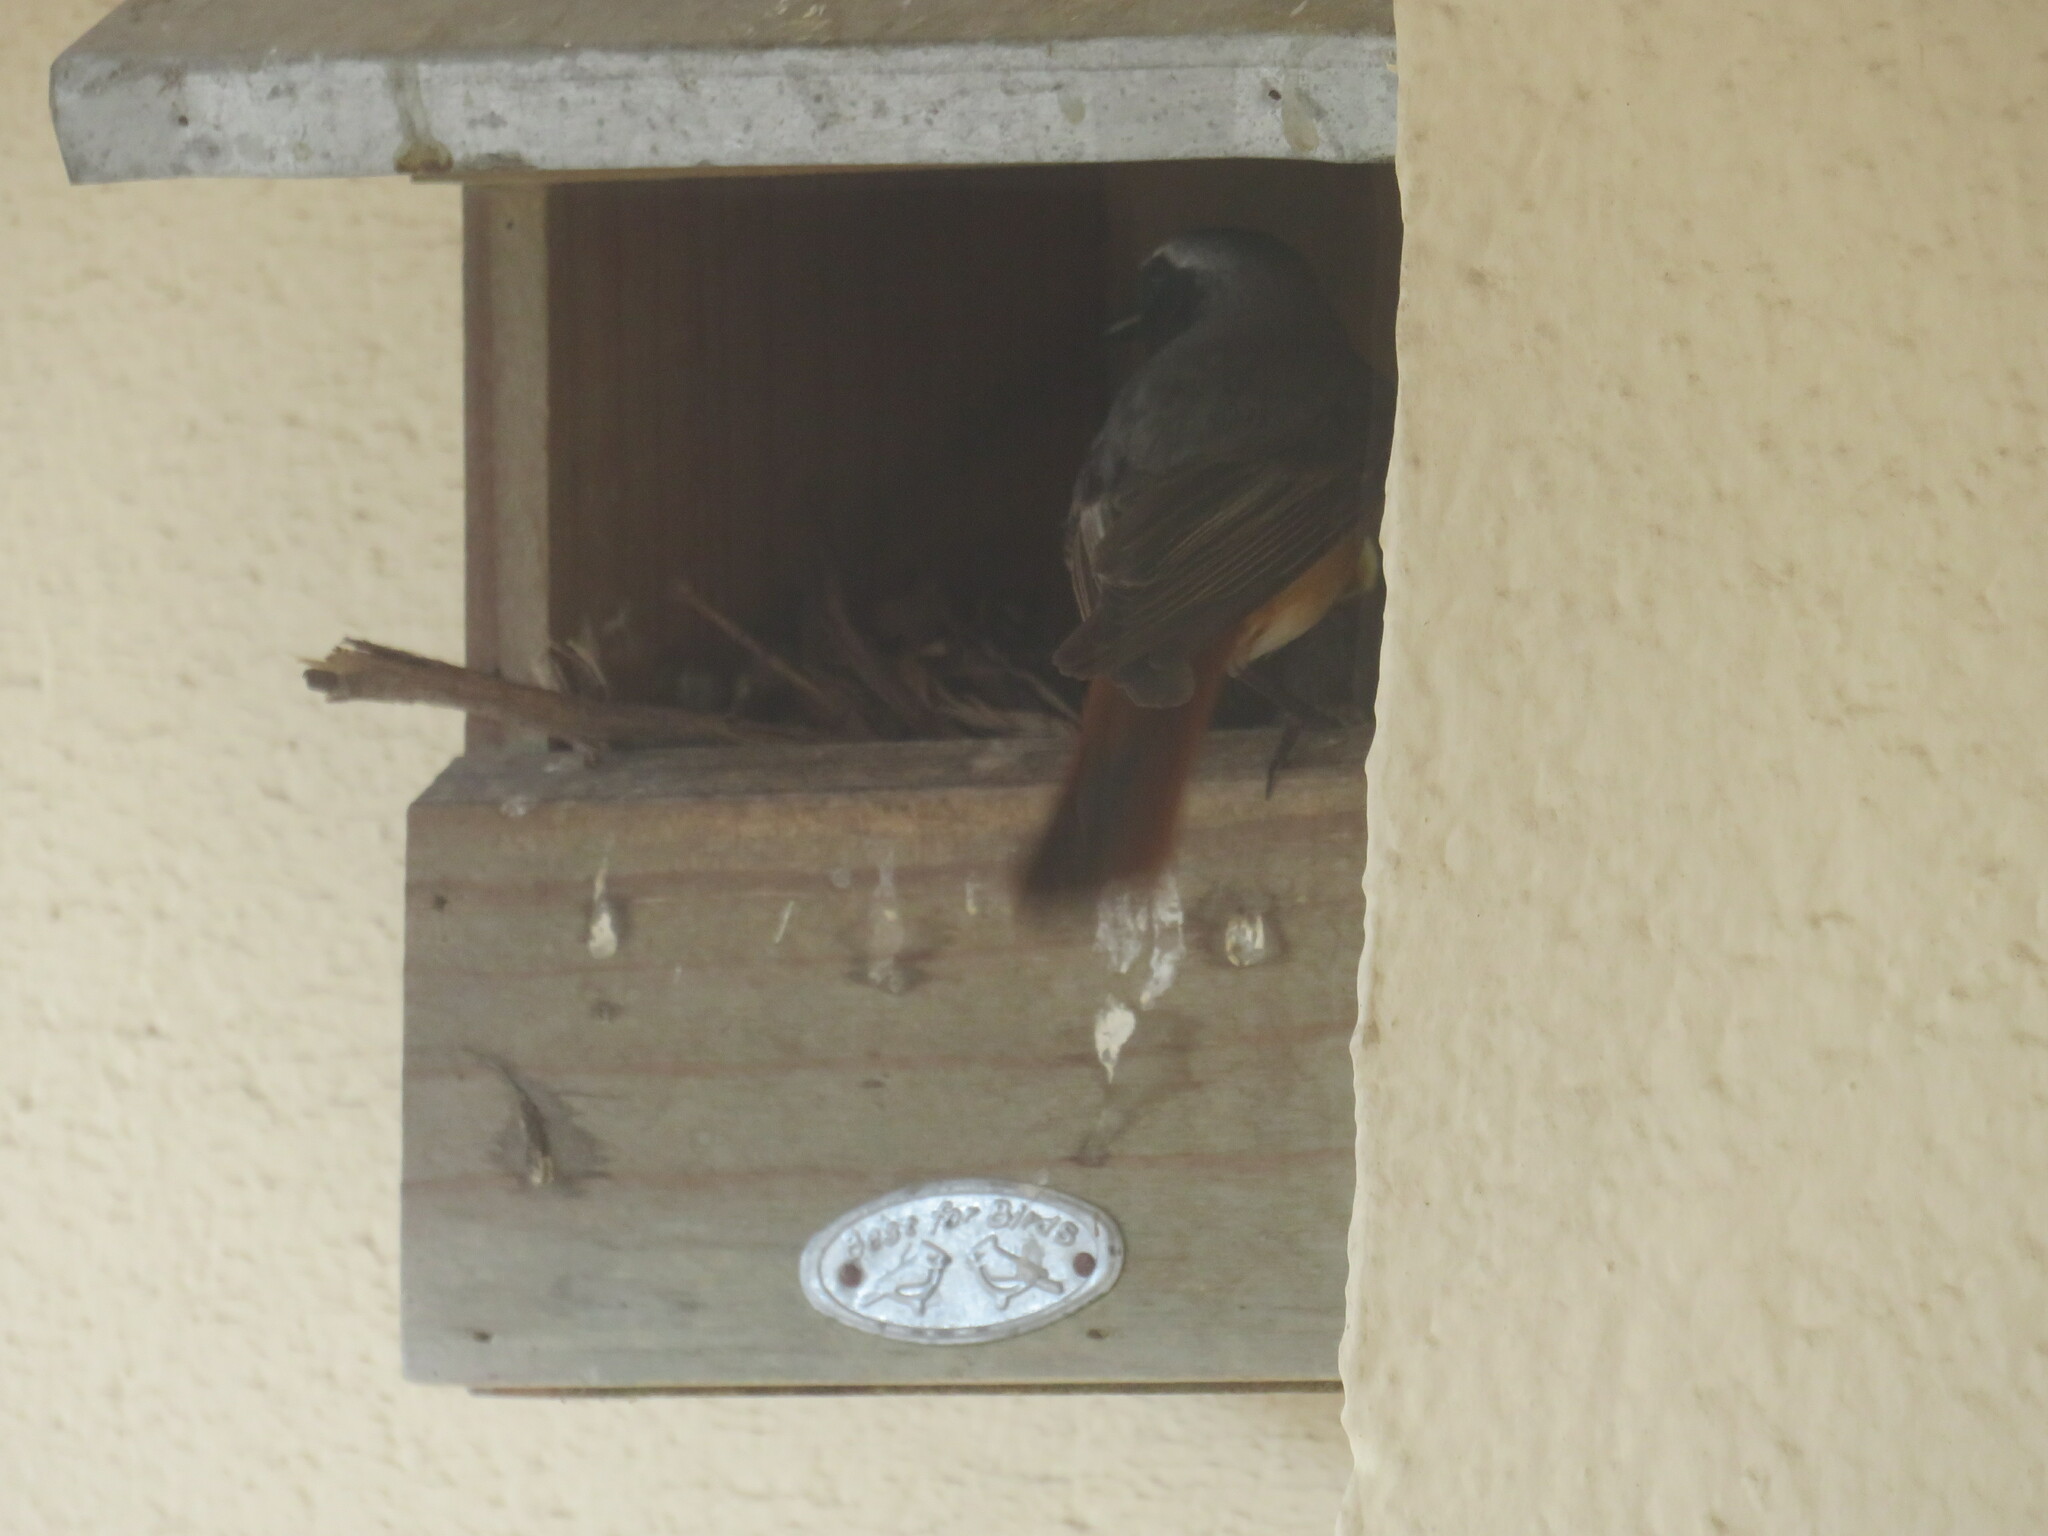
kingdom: Animalia
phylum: Chordata
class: Aves
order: Passeriformes
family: Muscicapidae
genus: Phoenicurus
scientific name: Phoenicurus phoenicurus
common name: Common redstart
